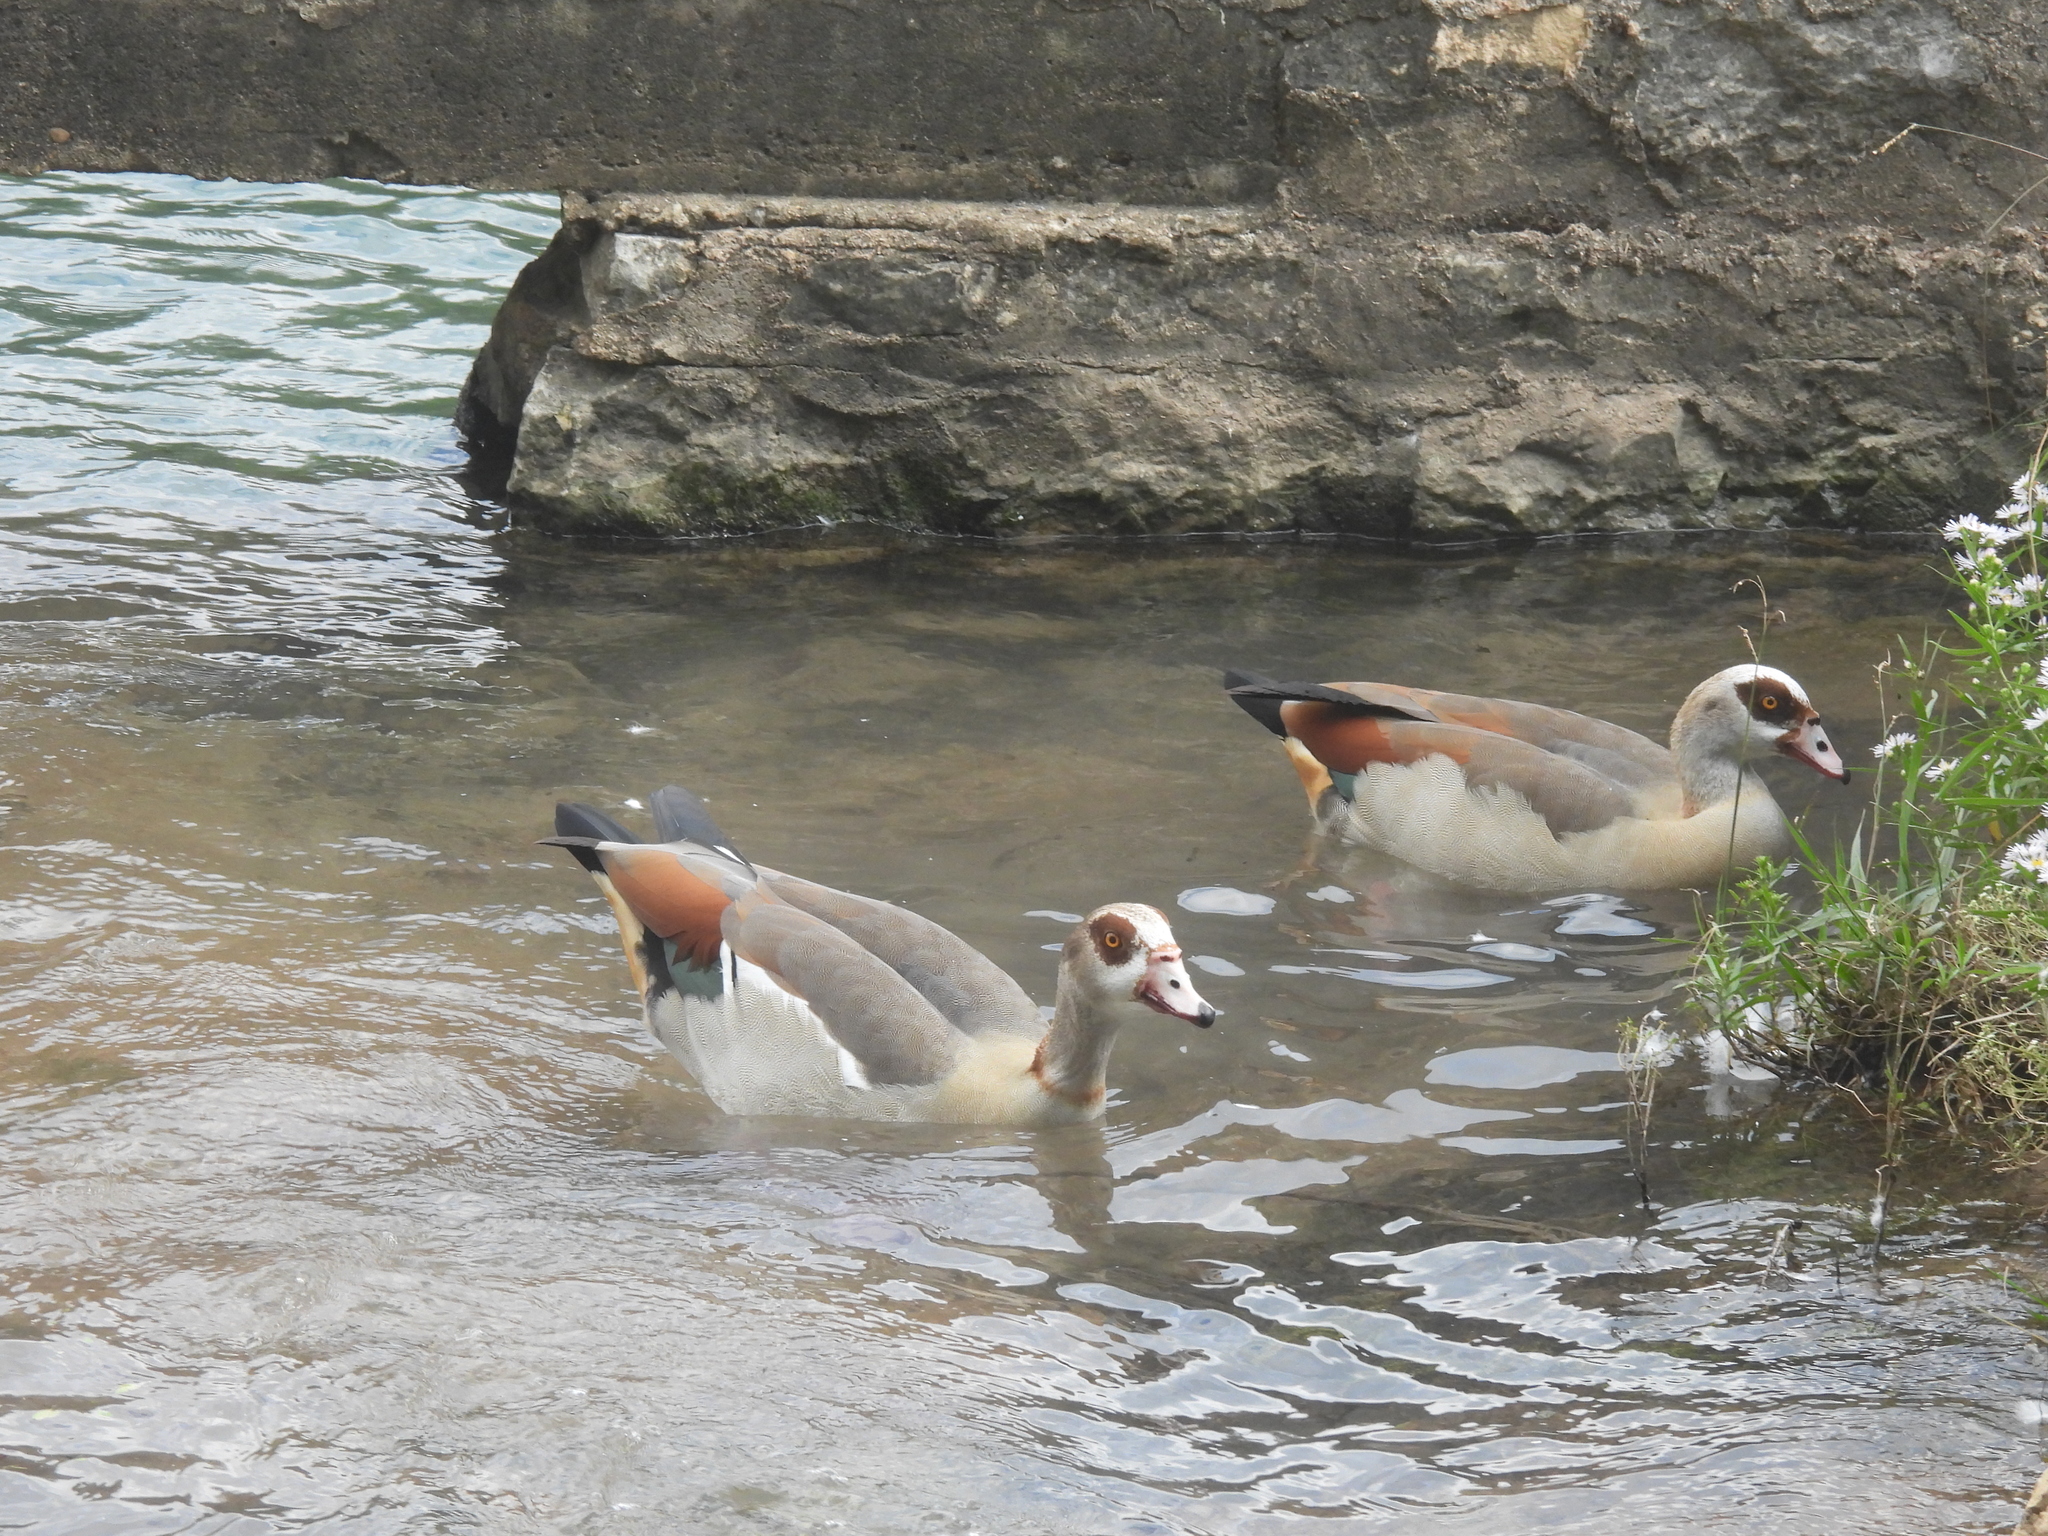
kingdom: Animalia
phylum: Chordata
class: Aves
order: Anseriformes
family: Anatidae
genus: Alopochen
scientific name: Alopochen aegyptiaca
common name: Egyptian goose
